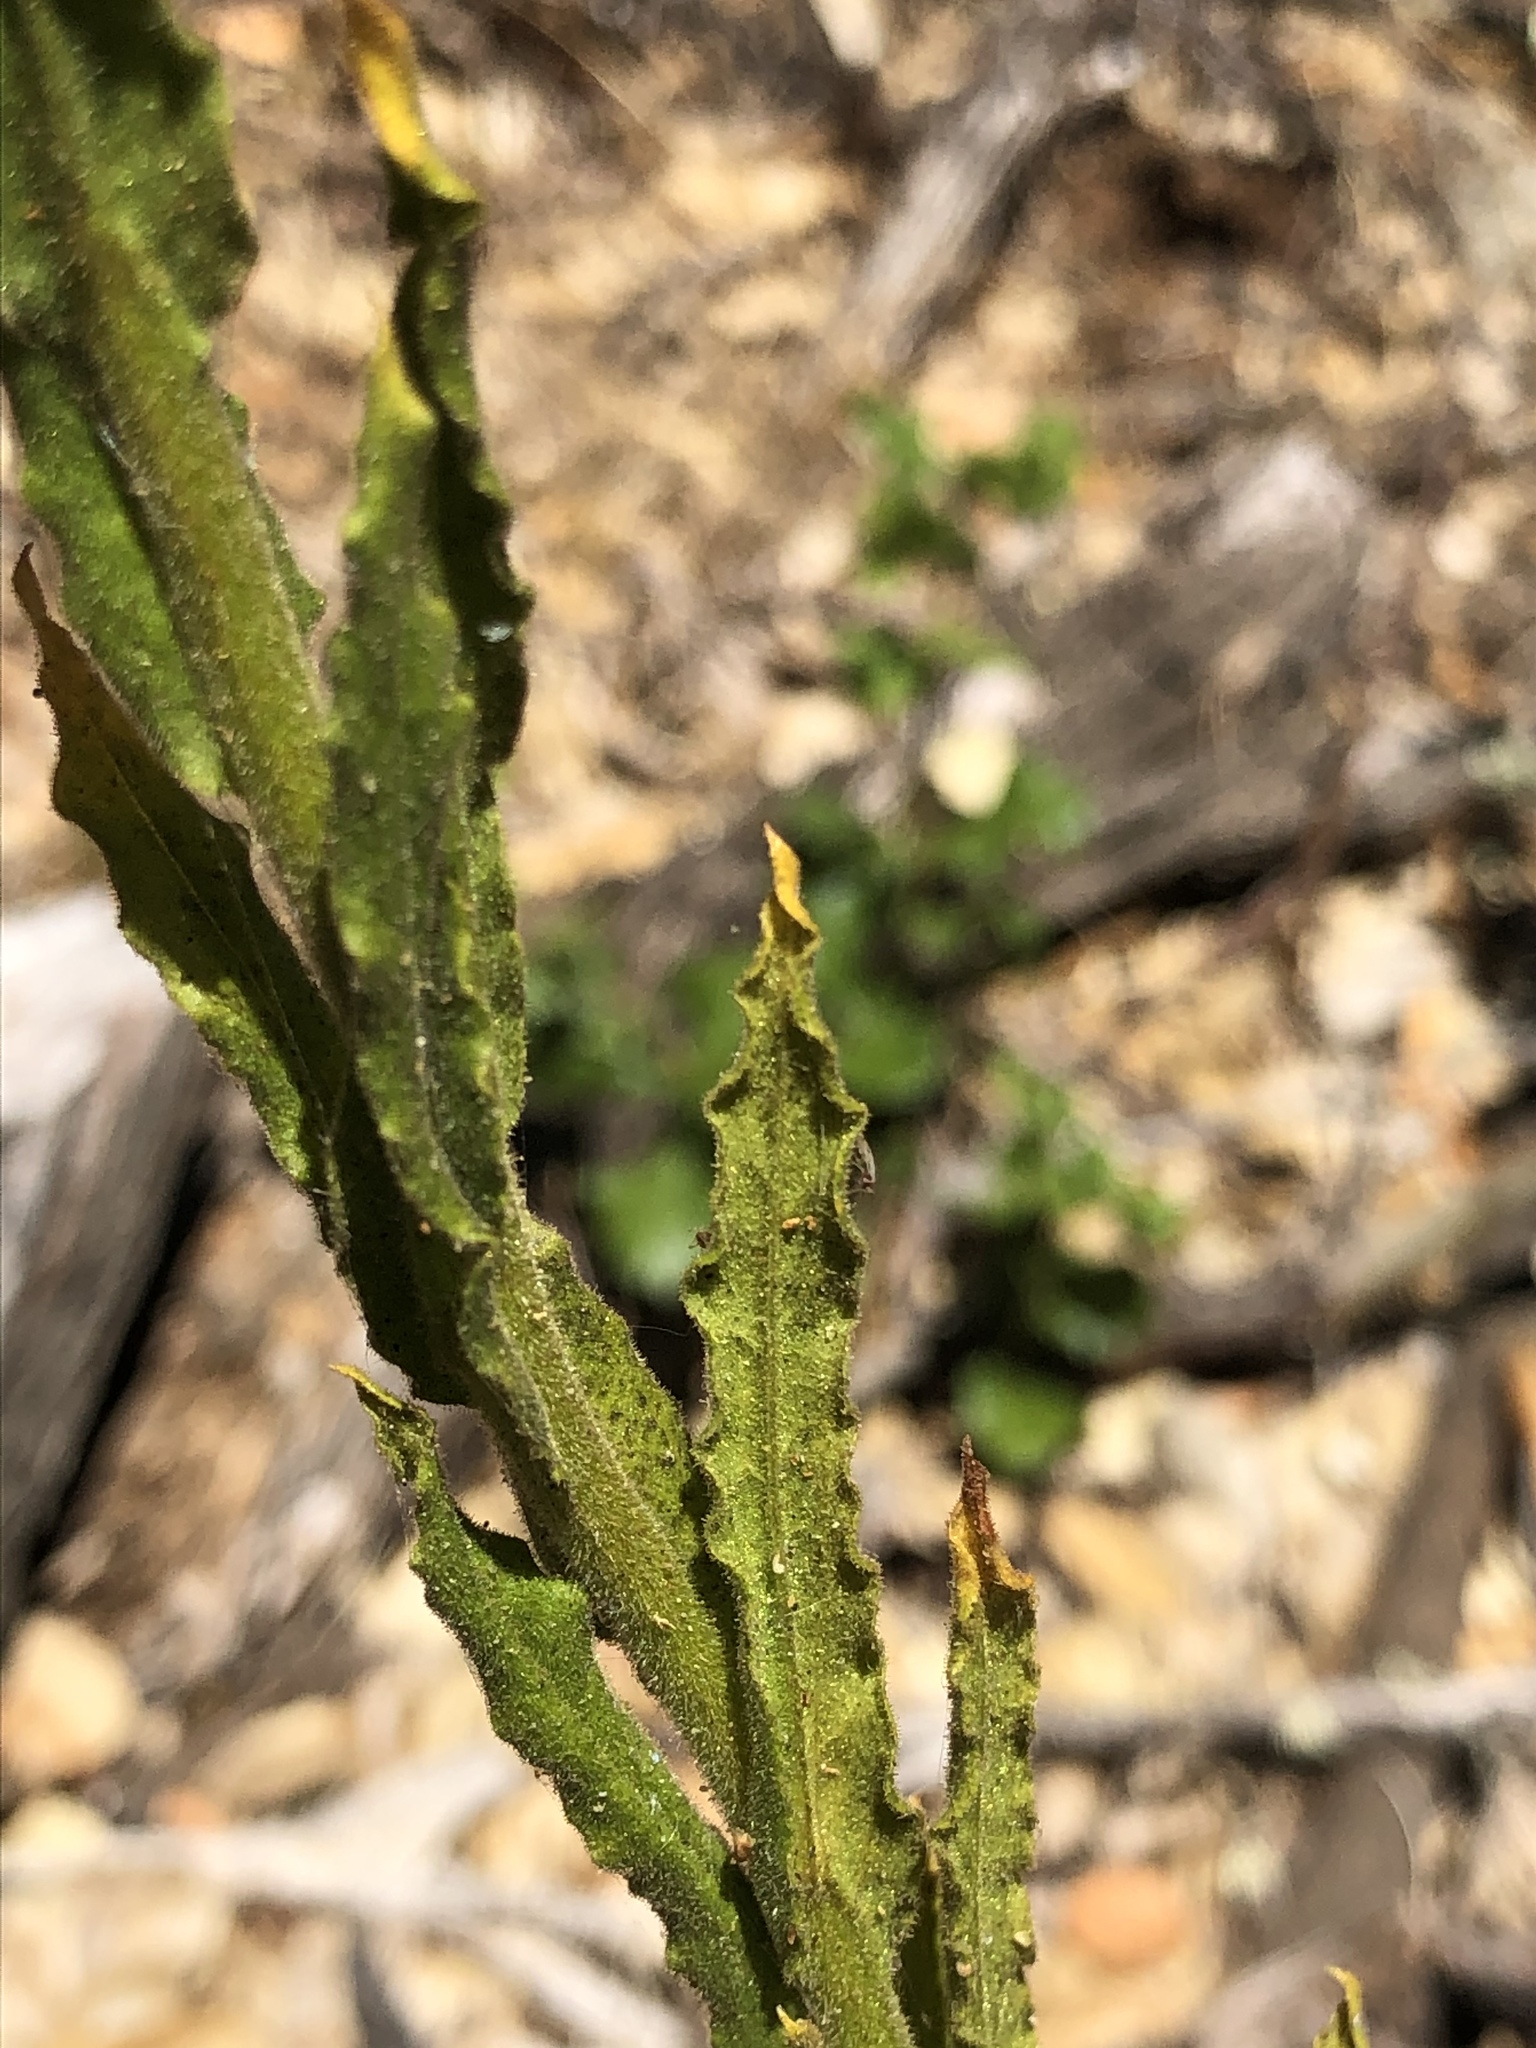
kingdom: Plantae
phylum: Tracheophyta
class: Magnoliopsida
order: Asterales
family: Asteraceae
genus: Pseudognaphalium
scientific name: Pseudognaphalium californicum
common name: California rabbit-tobacco
